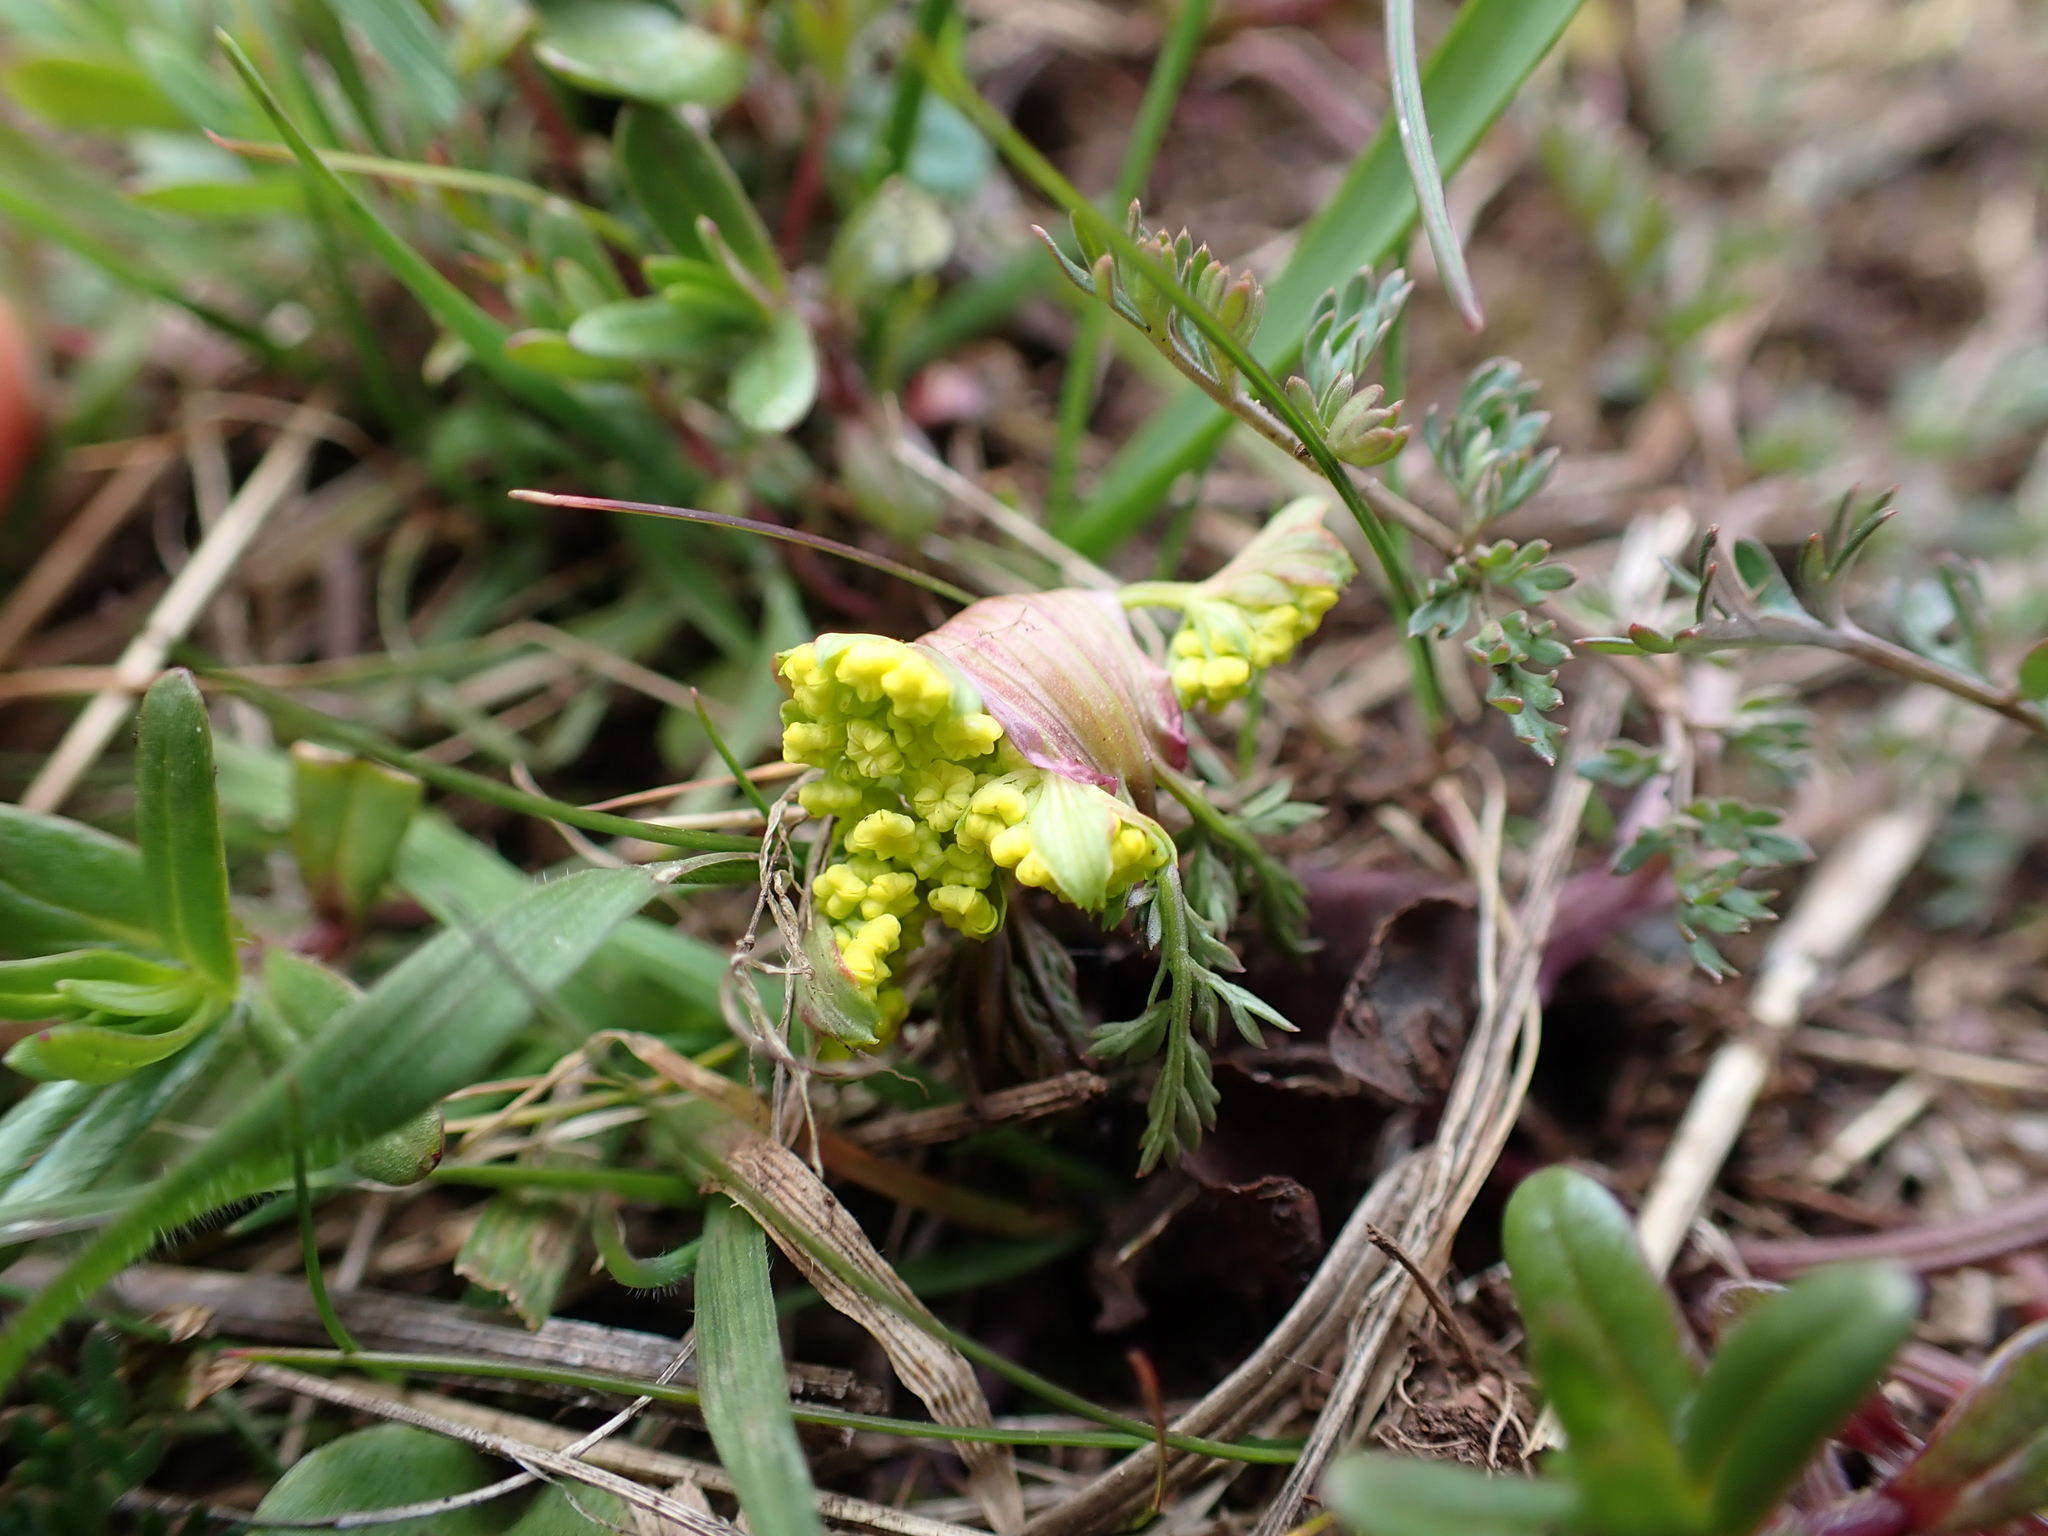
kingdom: Plantae
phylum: Tracheophyta
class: Magnoliopsida
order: Apiales
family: Apiaceae
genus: Lomatium
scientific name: Lomatium utriculatum
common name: Fine-leaf desert-parsley
